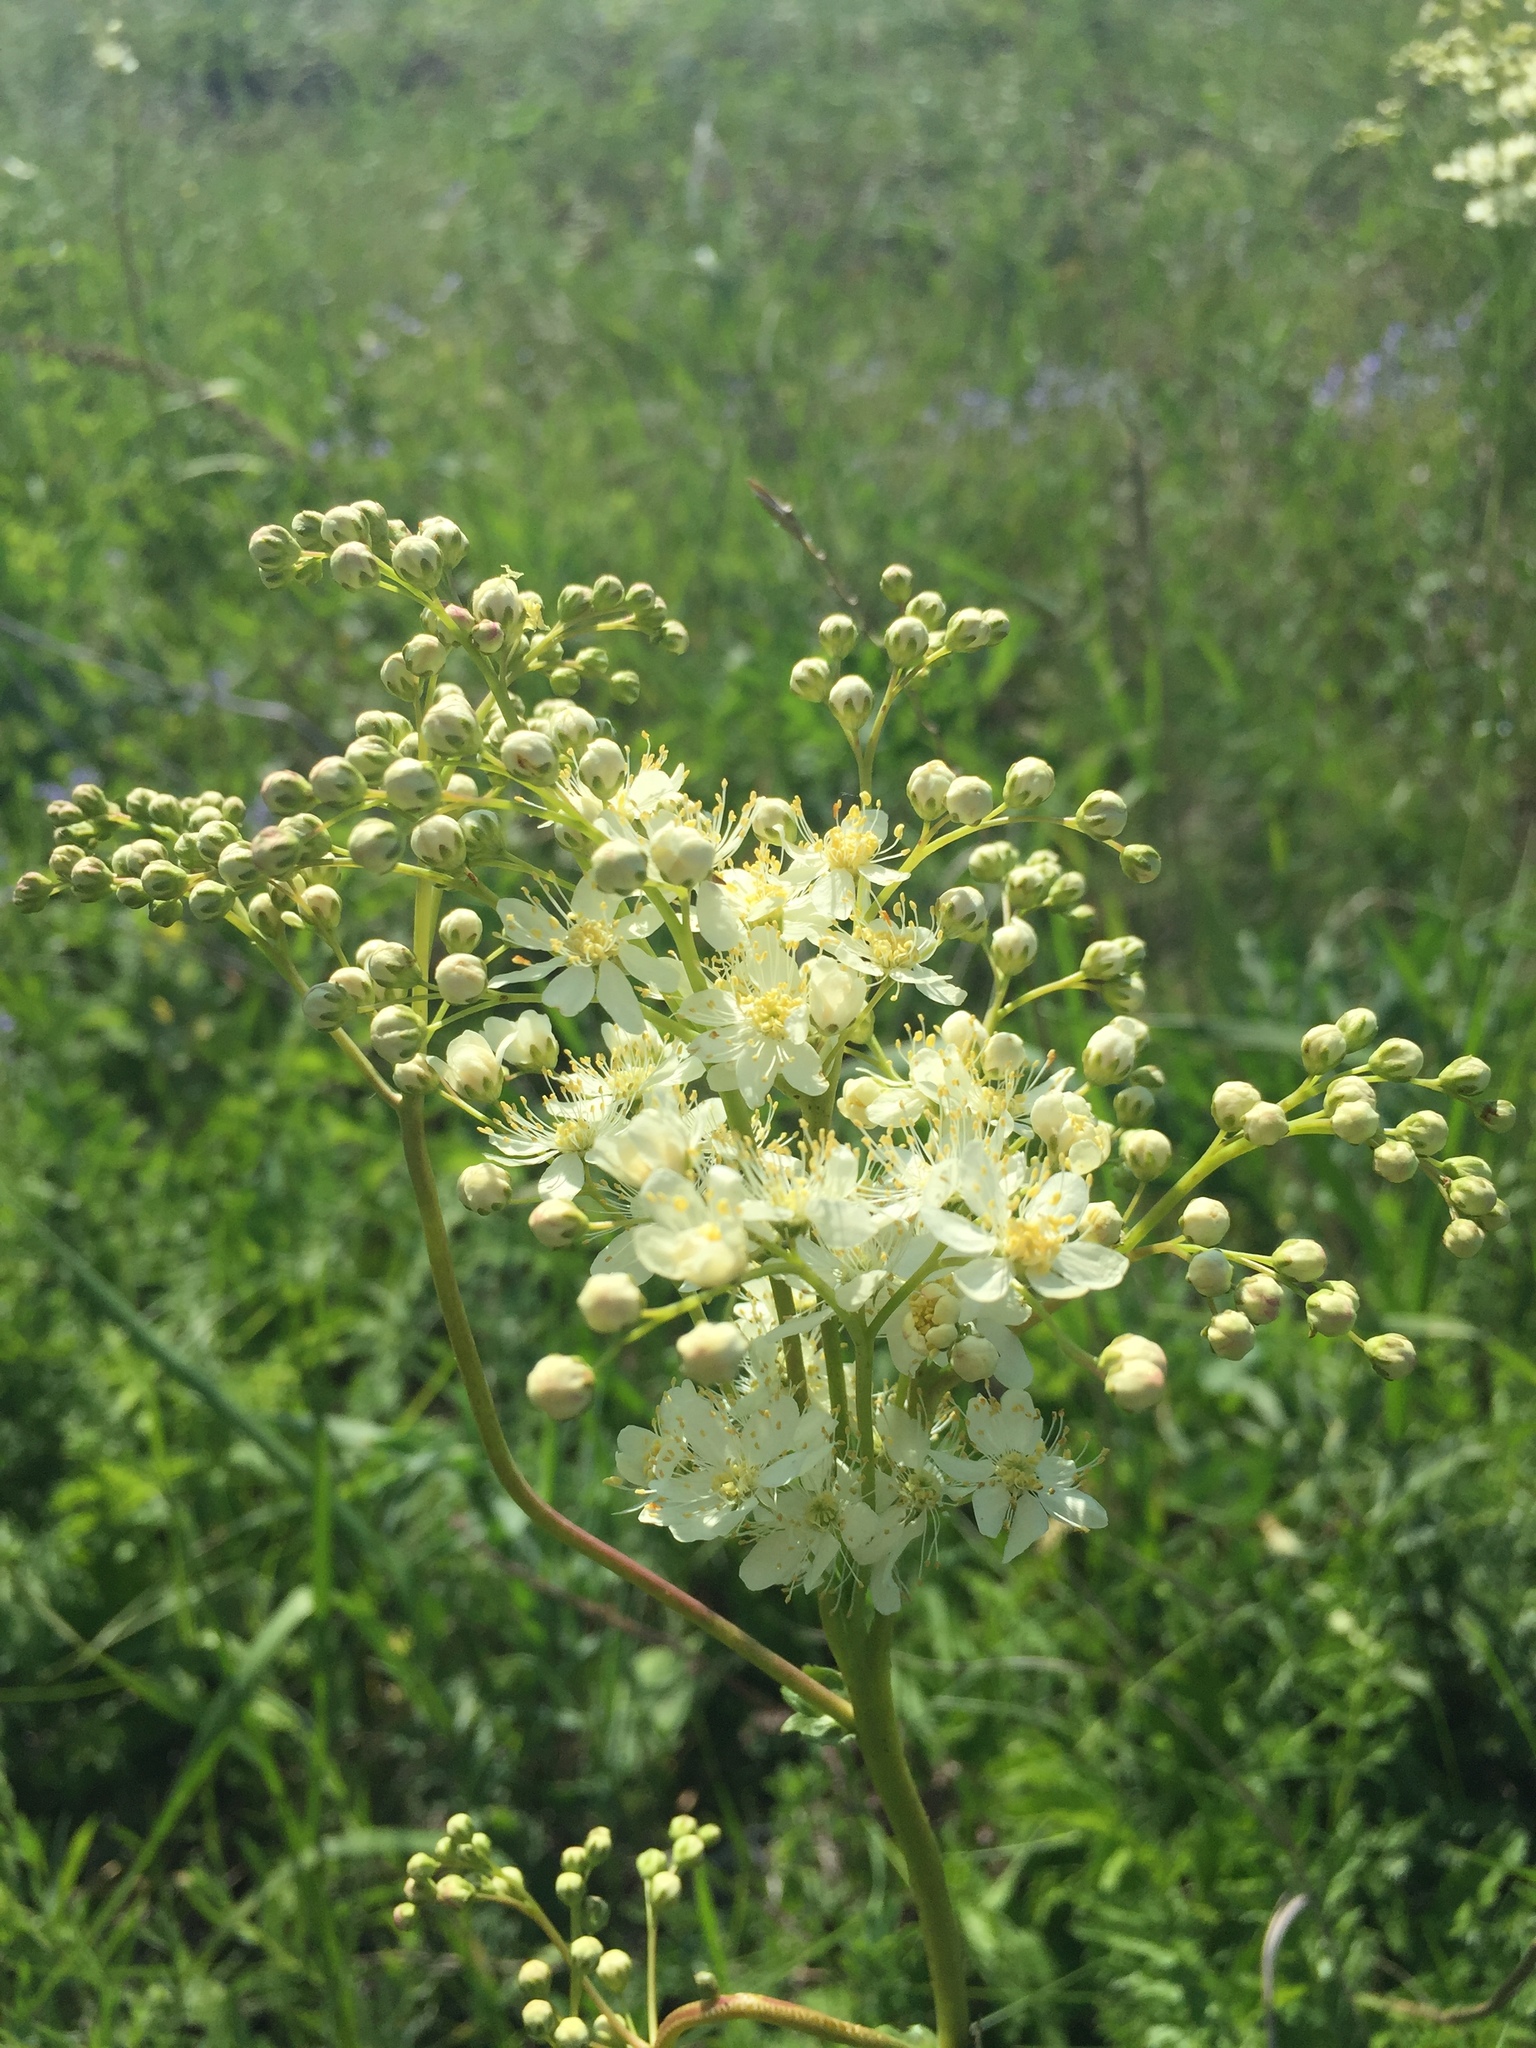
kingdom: Plantae
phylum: Tracheophyta
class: Magnoliopsida
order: Rosales
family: Rosaceae
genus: Filipendula
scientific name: Filipendula vulgaris
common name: Dropwort
